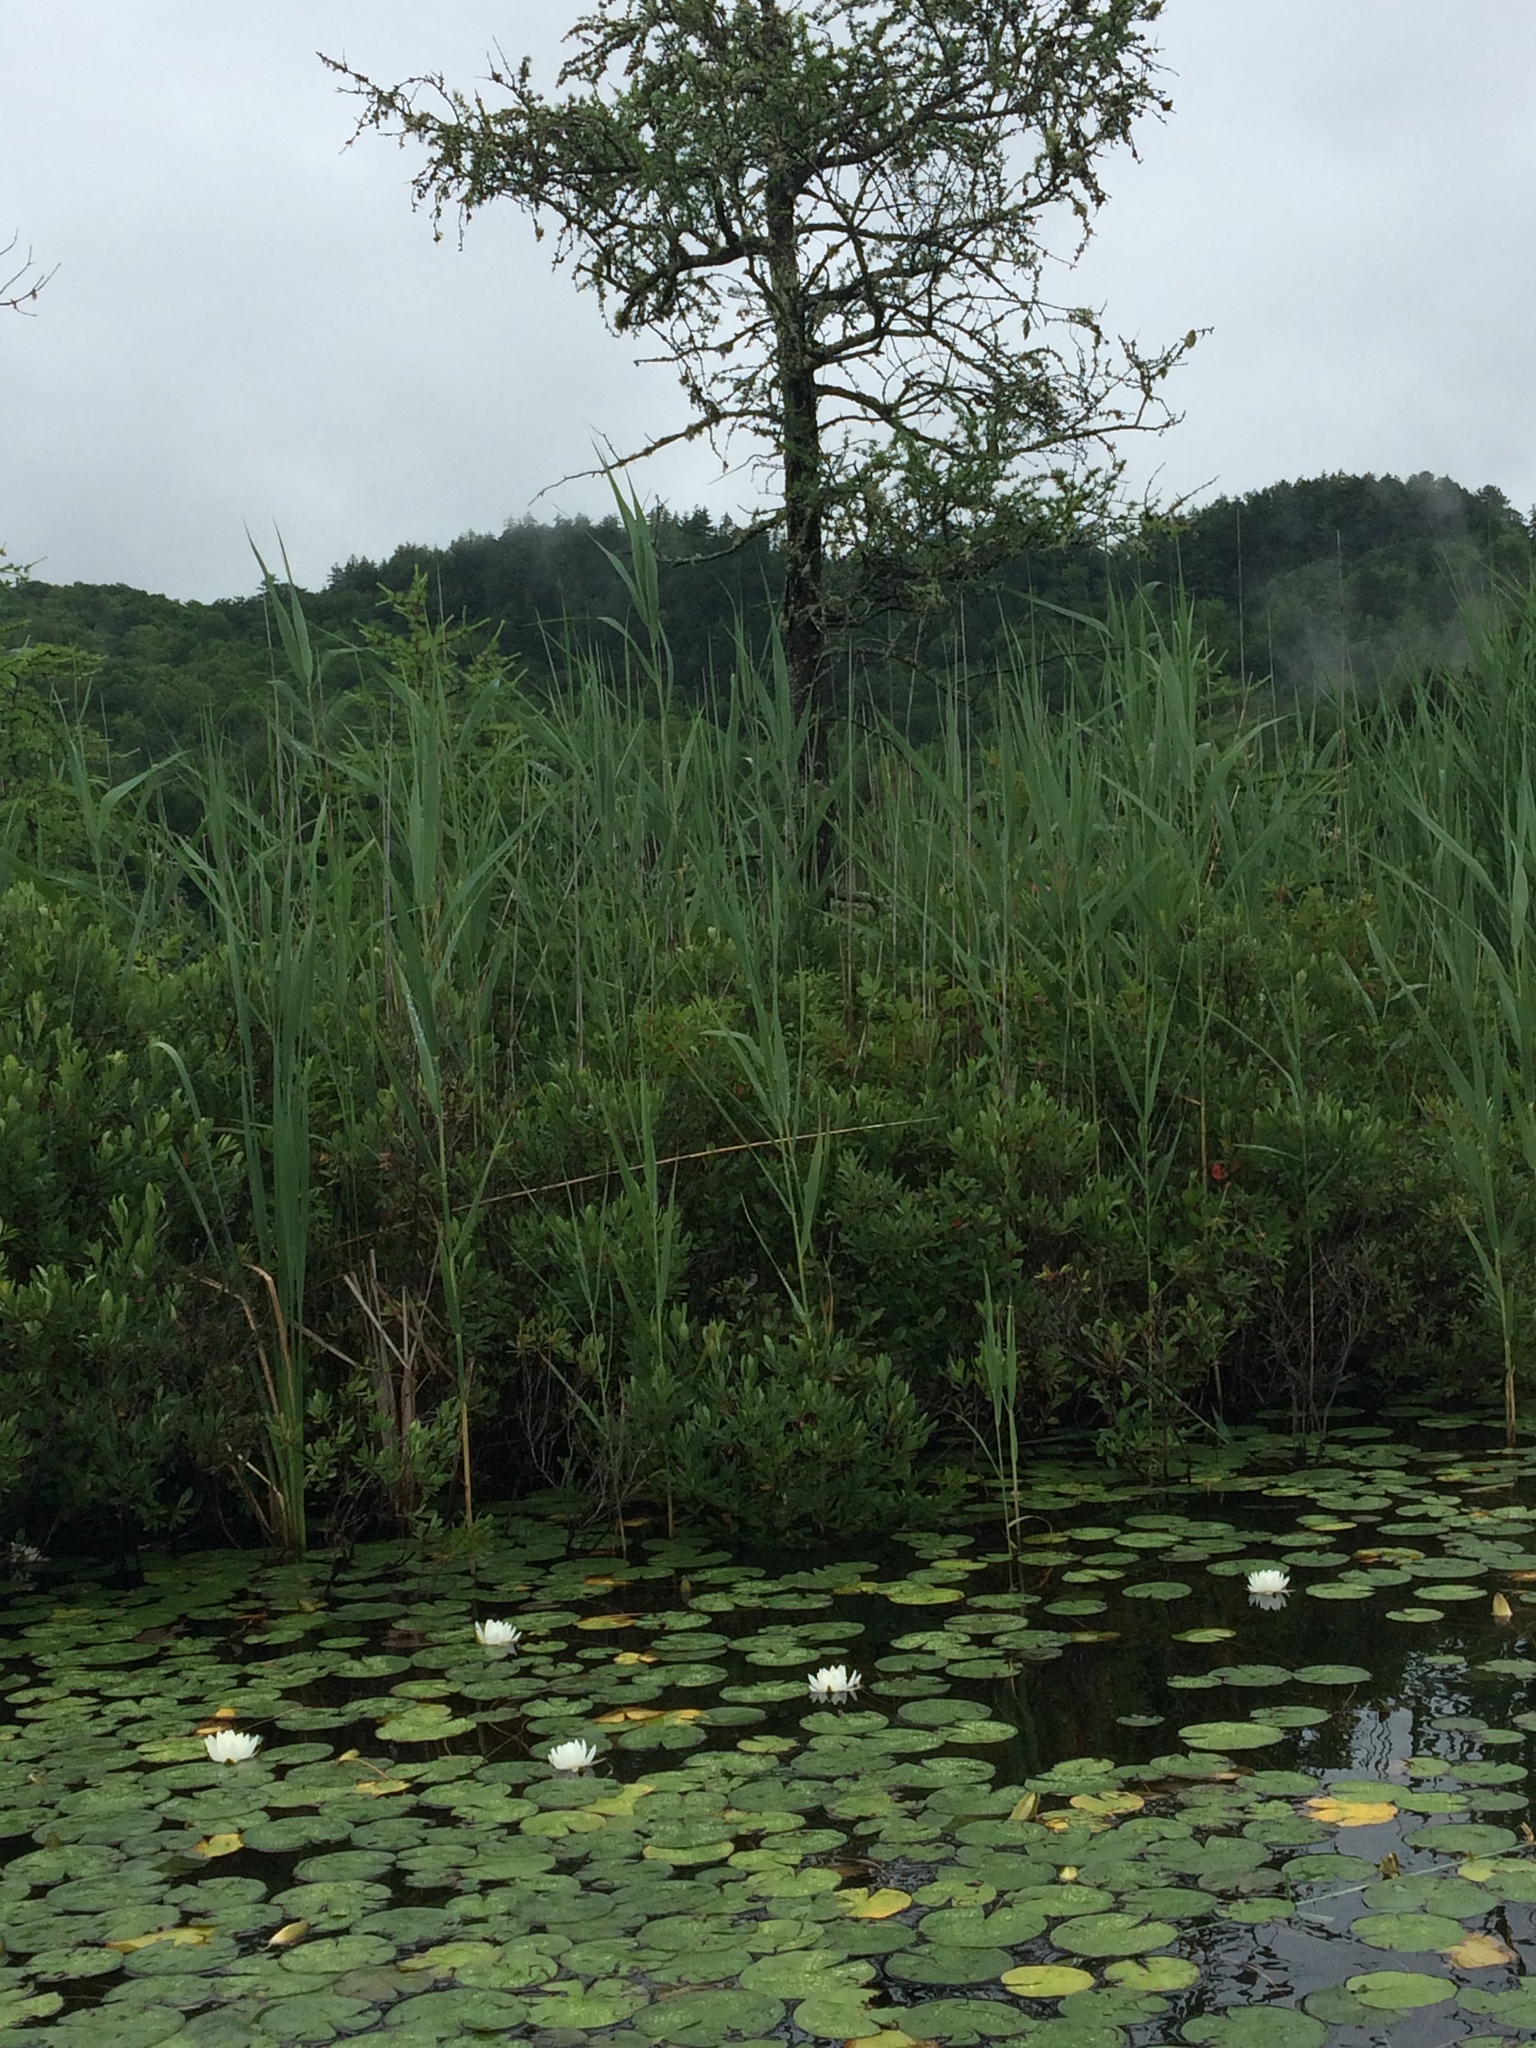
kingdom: Plantae
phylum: Tracheophyta
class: Liliopsida
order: Poales
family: Poaceae
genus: Phragmites
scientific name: Phragmites australis
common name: Common reed
